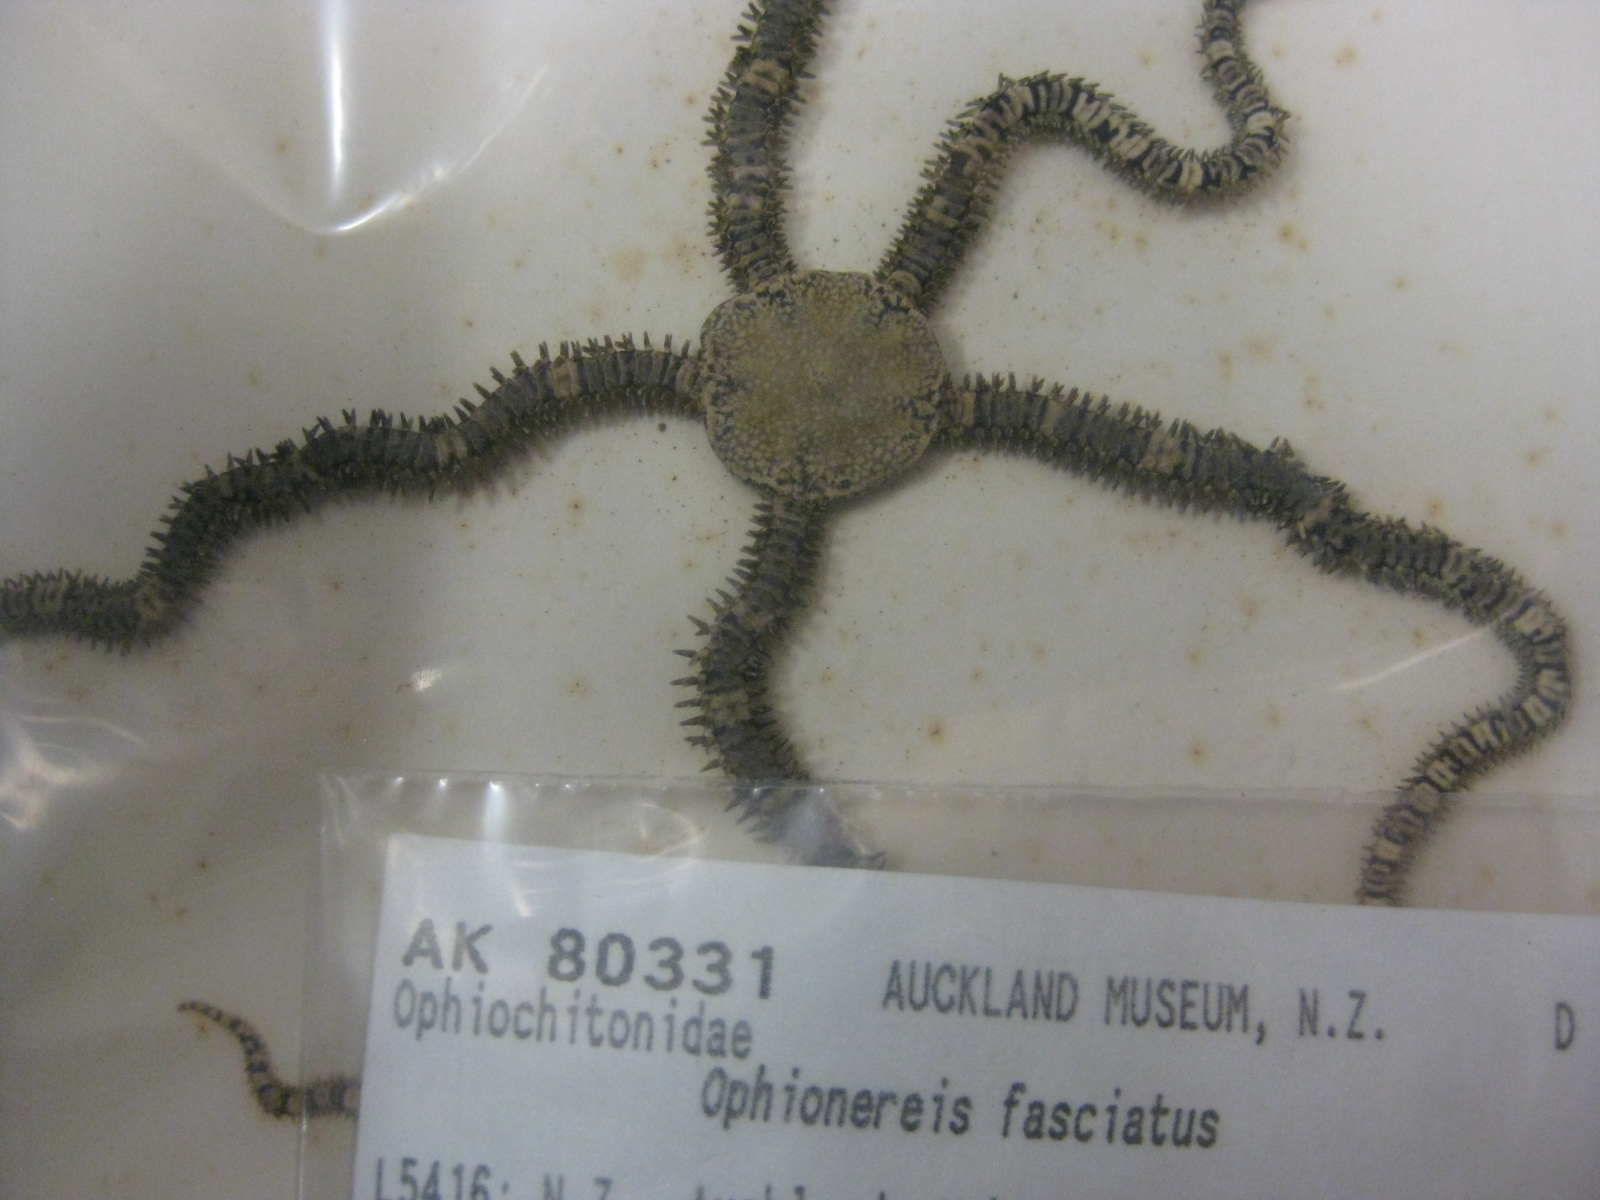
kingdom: Animalia
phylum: Echinodermata
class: Ophiuroidea
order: Amphilepidida
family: Ophionereididae
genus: Ophionereis
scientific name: Ophionereis fasciata
